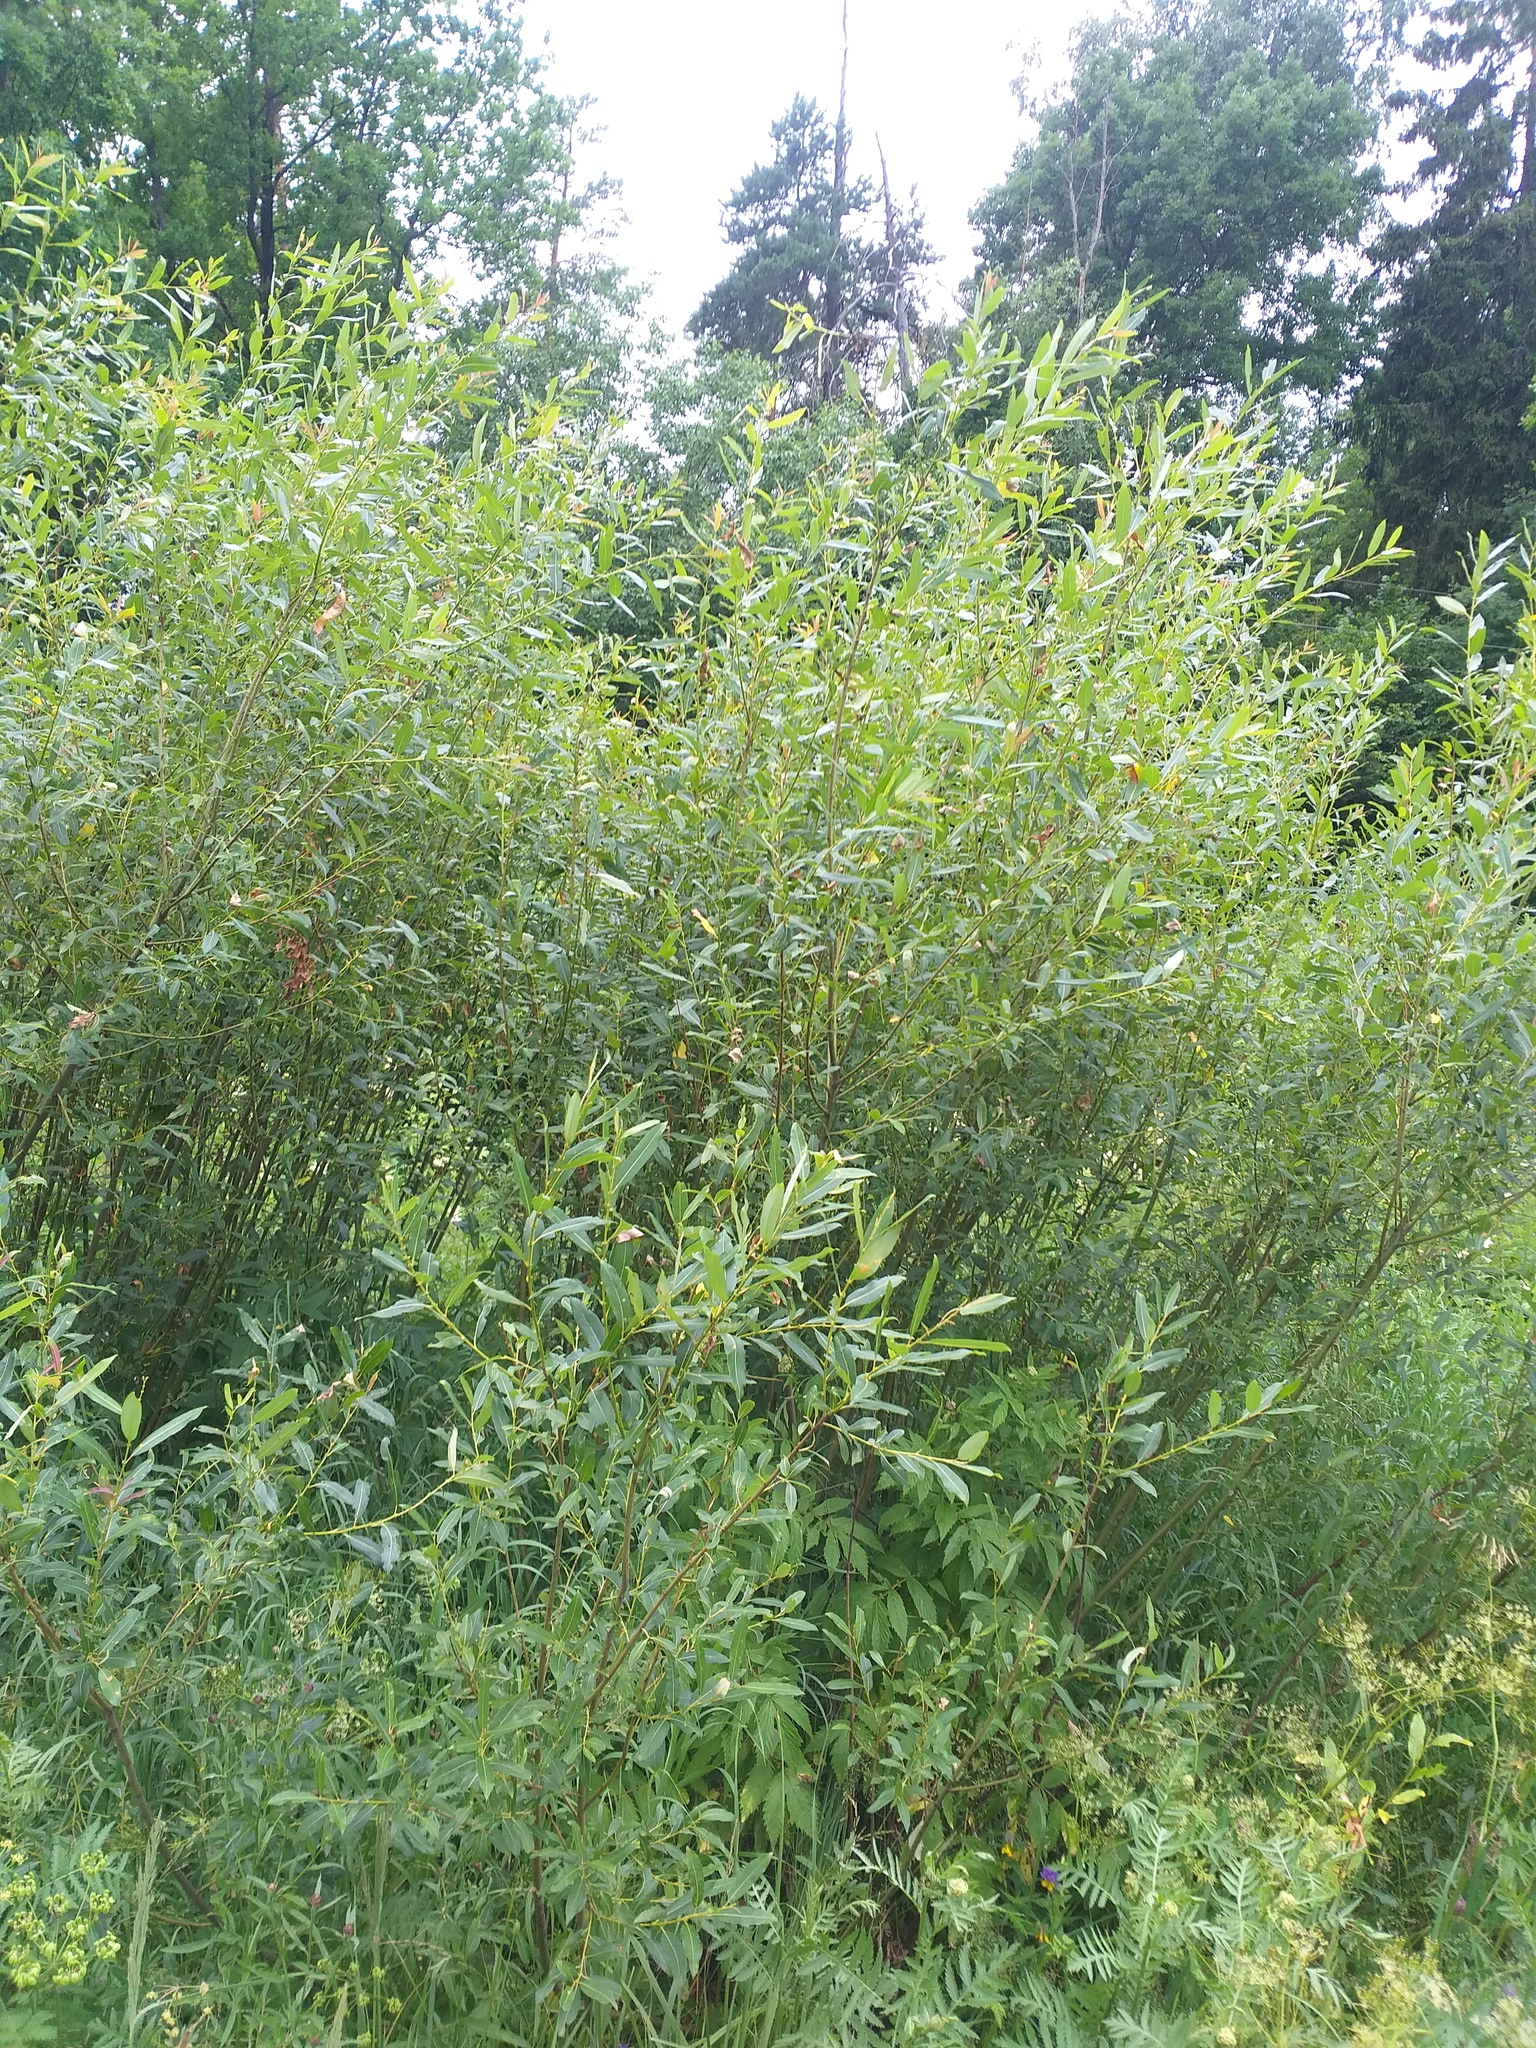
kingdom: Plantae
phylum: Tracheophyta
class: Magnoliopsida
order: Malpighiales
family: Salicaceae
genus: Salix
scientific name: Salix triandra
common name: Almond willow
